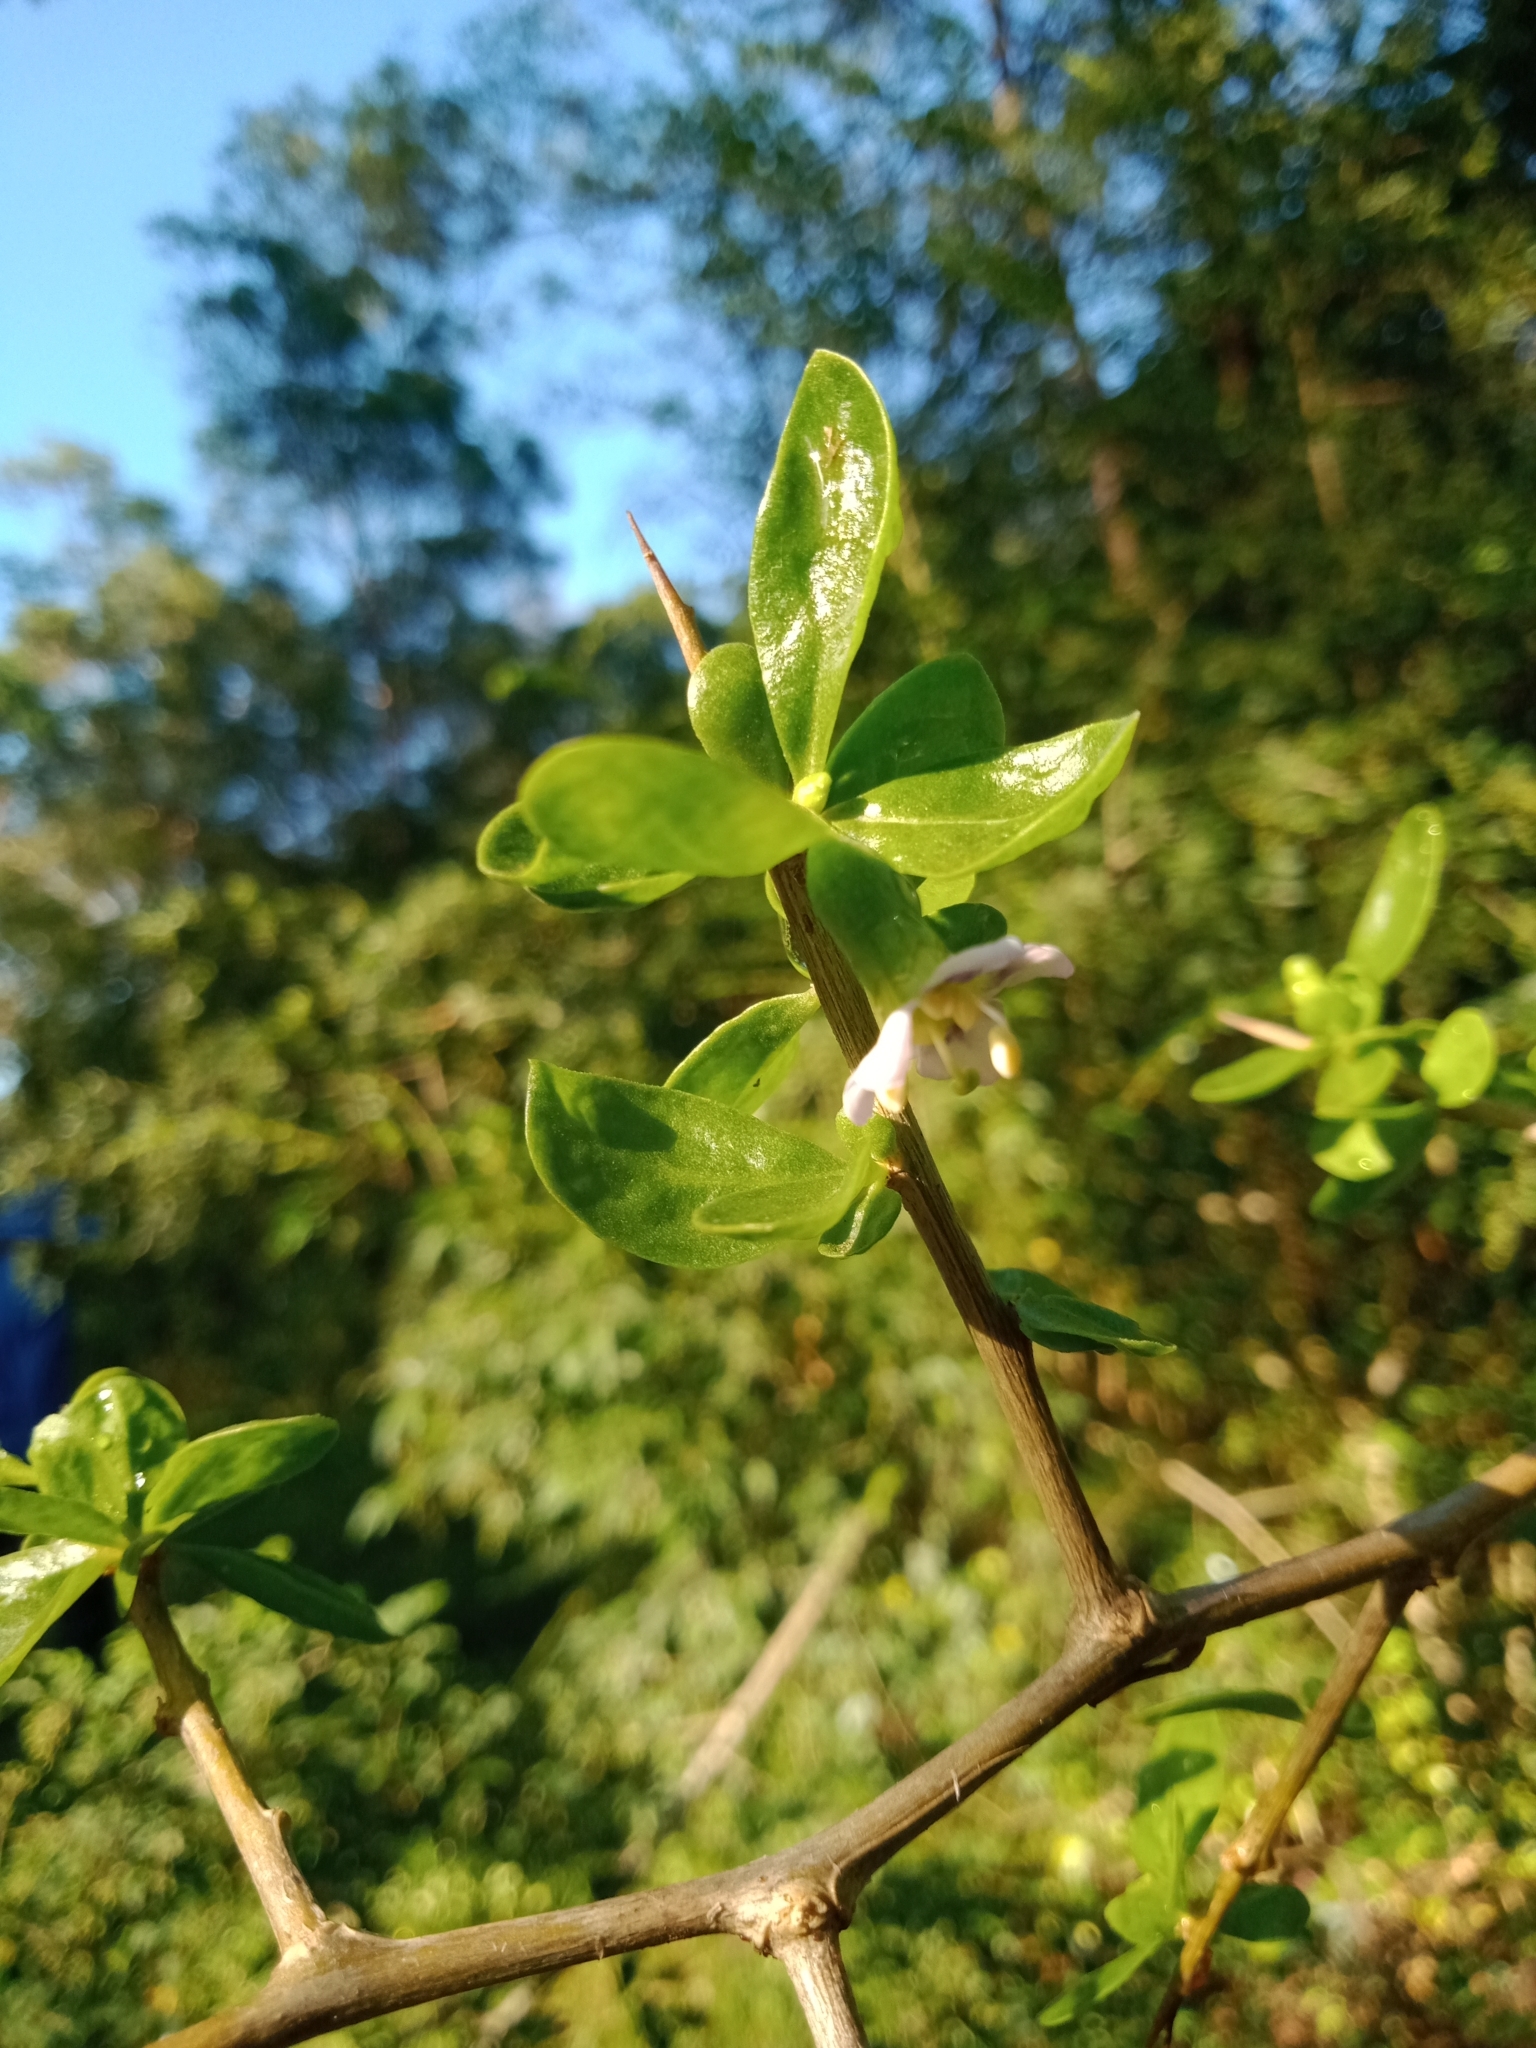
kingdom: Plantae
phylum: Tracheophyta
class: Magnoliopsida
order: Solanales
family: Solanaceae
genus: Lycium
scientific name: Lycium ferocissimum
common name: African boxthorn
